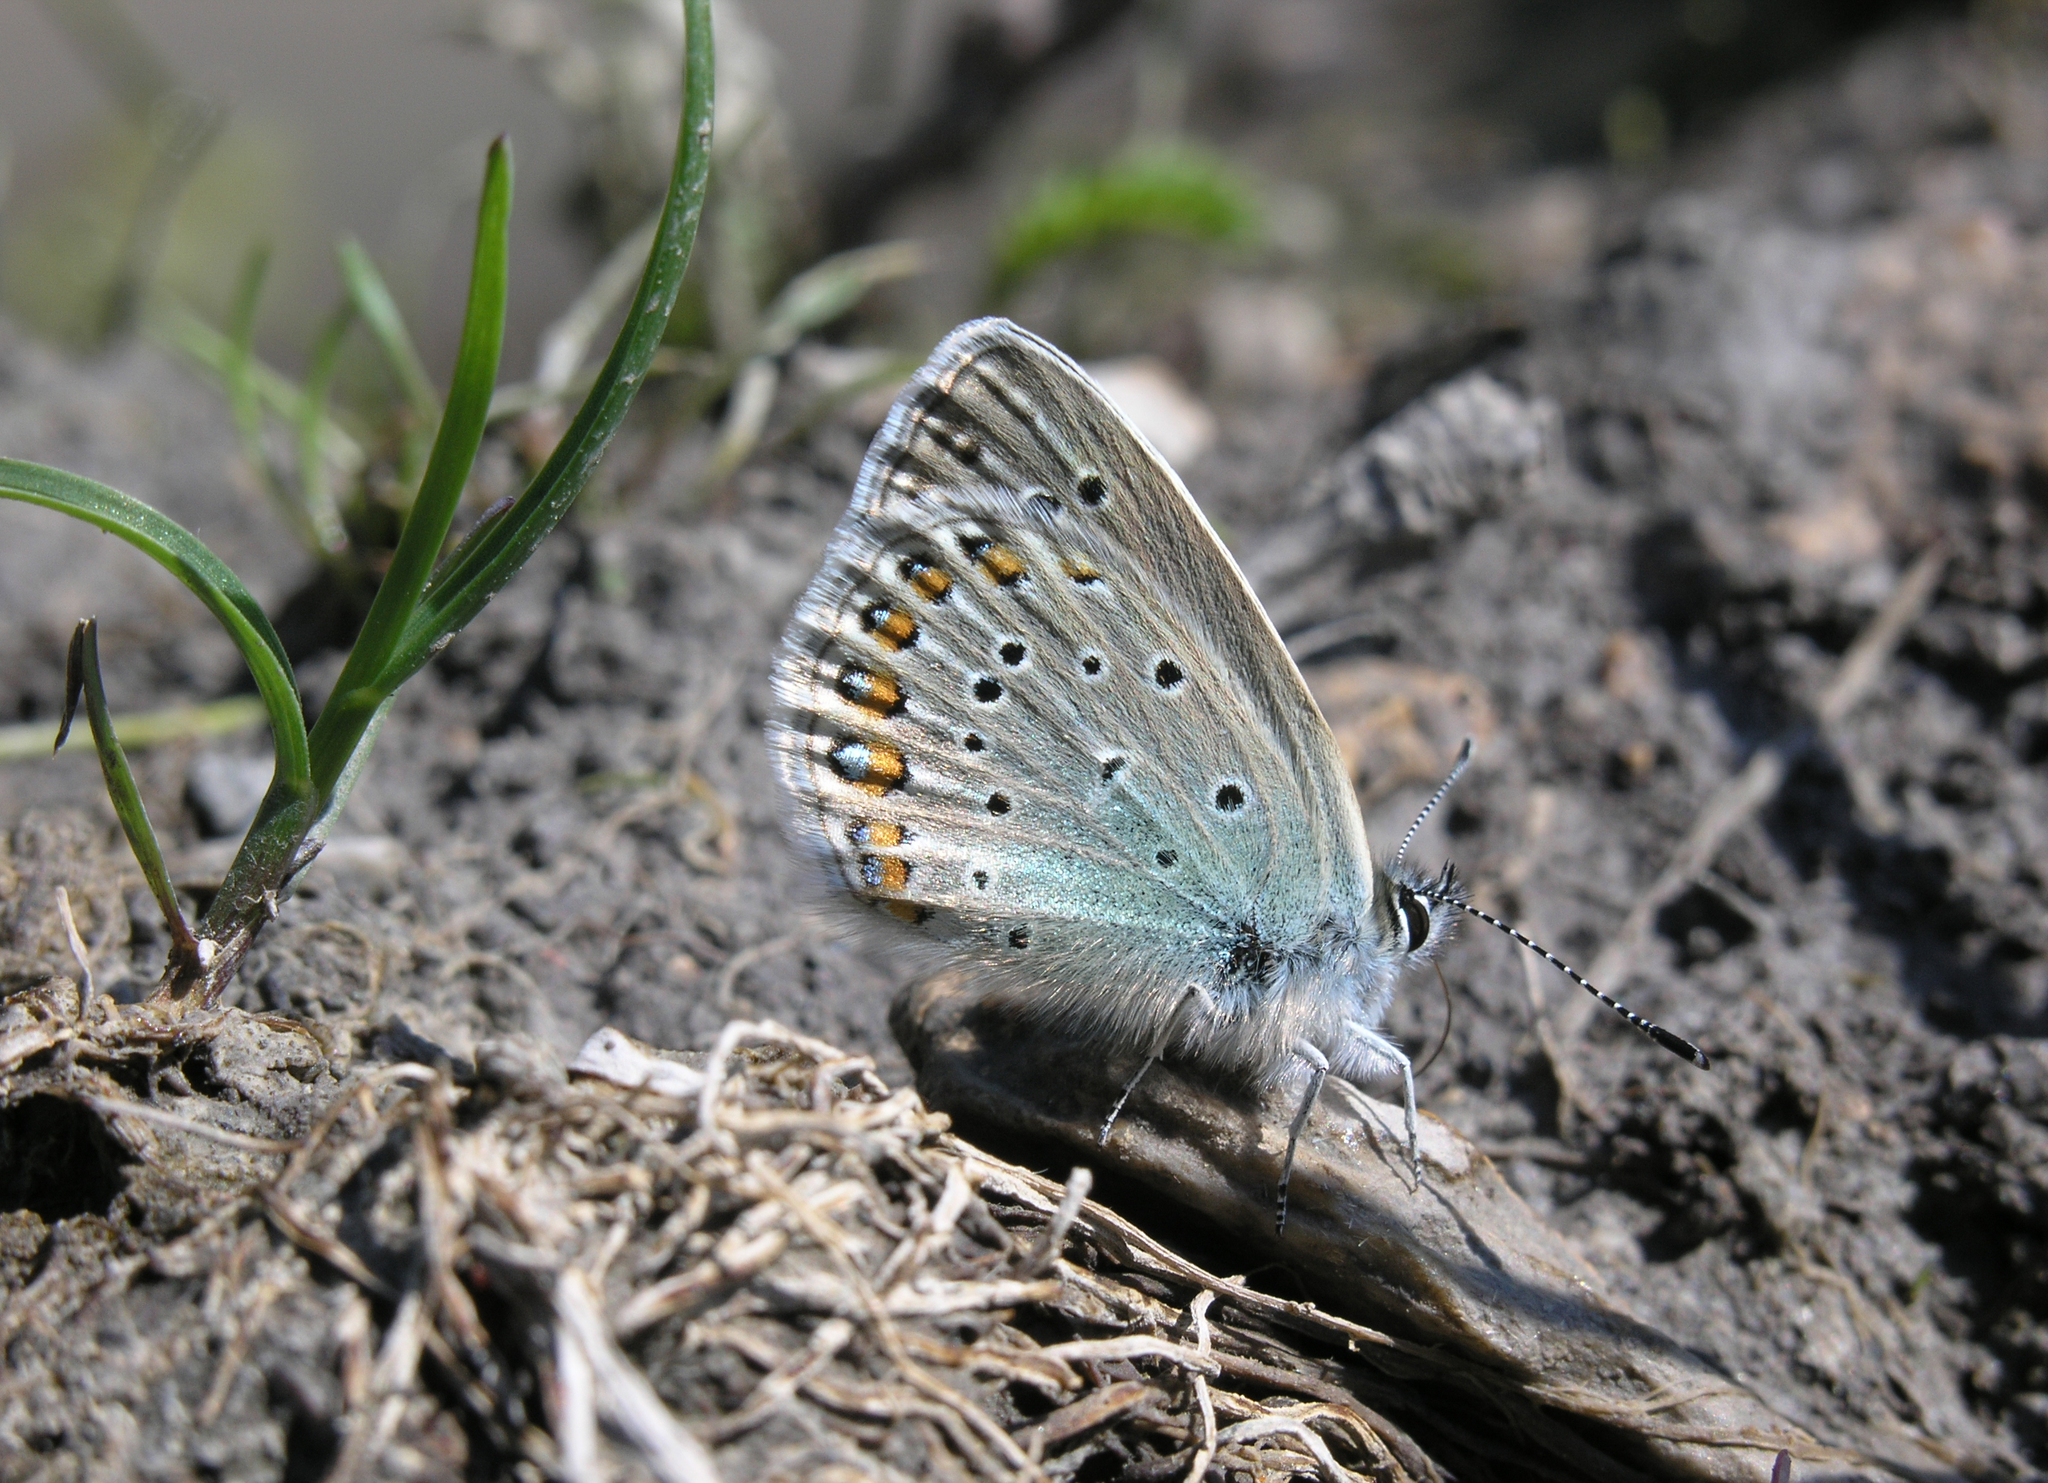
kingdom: Animalia
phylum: Arthropoda
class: Insecta
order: Lepidoptera
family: Lycaenidae
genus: Patricius
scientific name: Patricius lucifera
